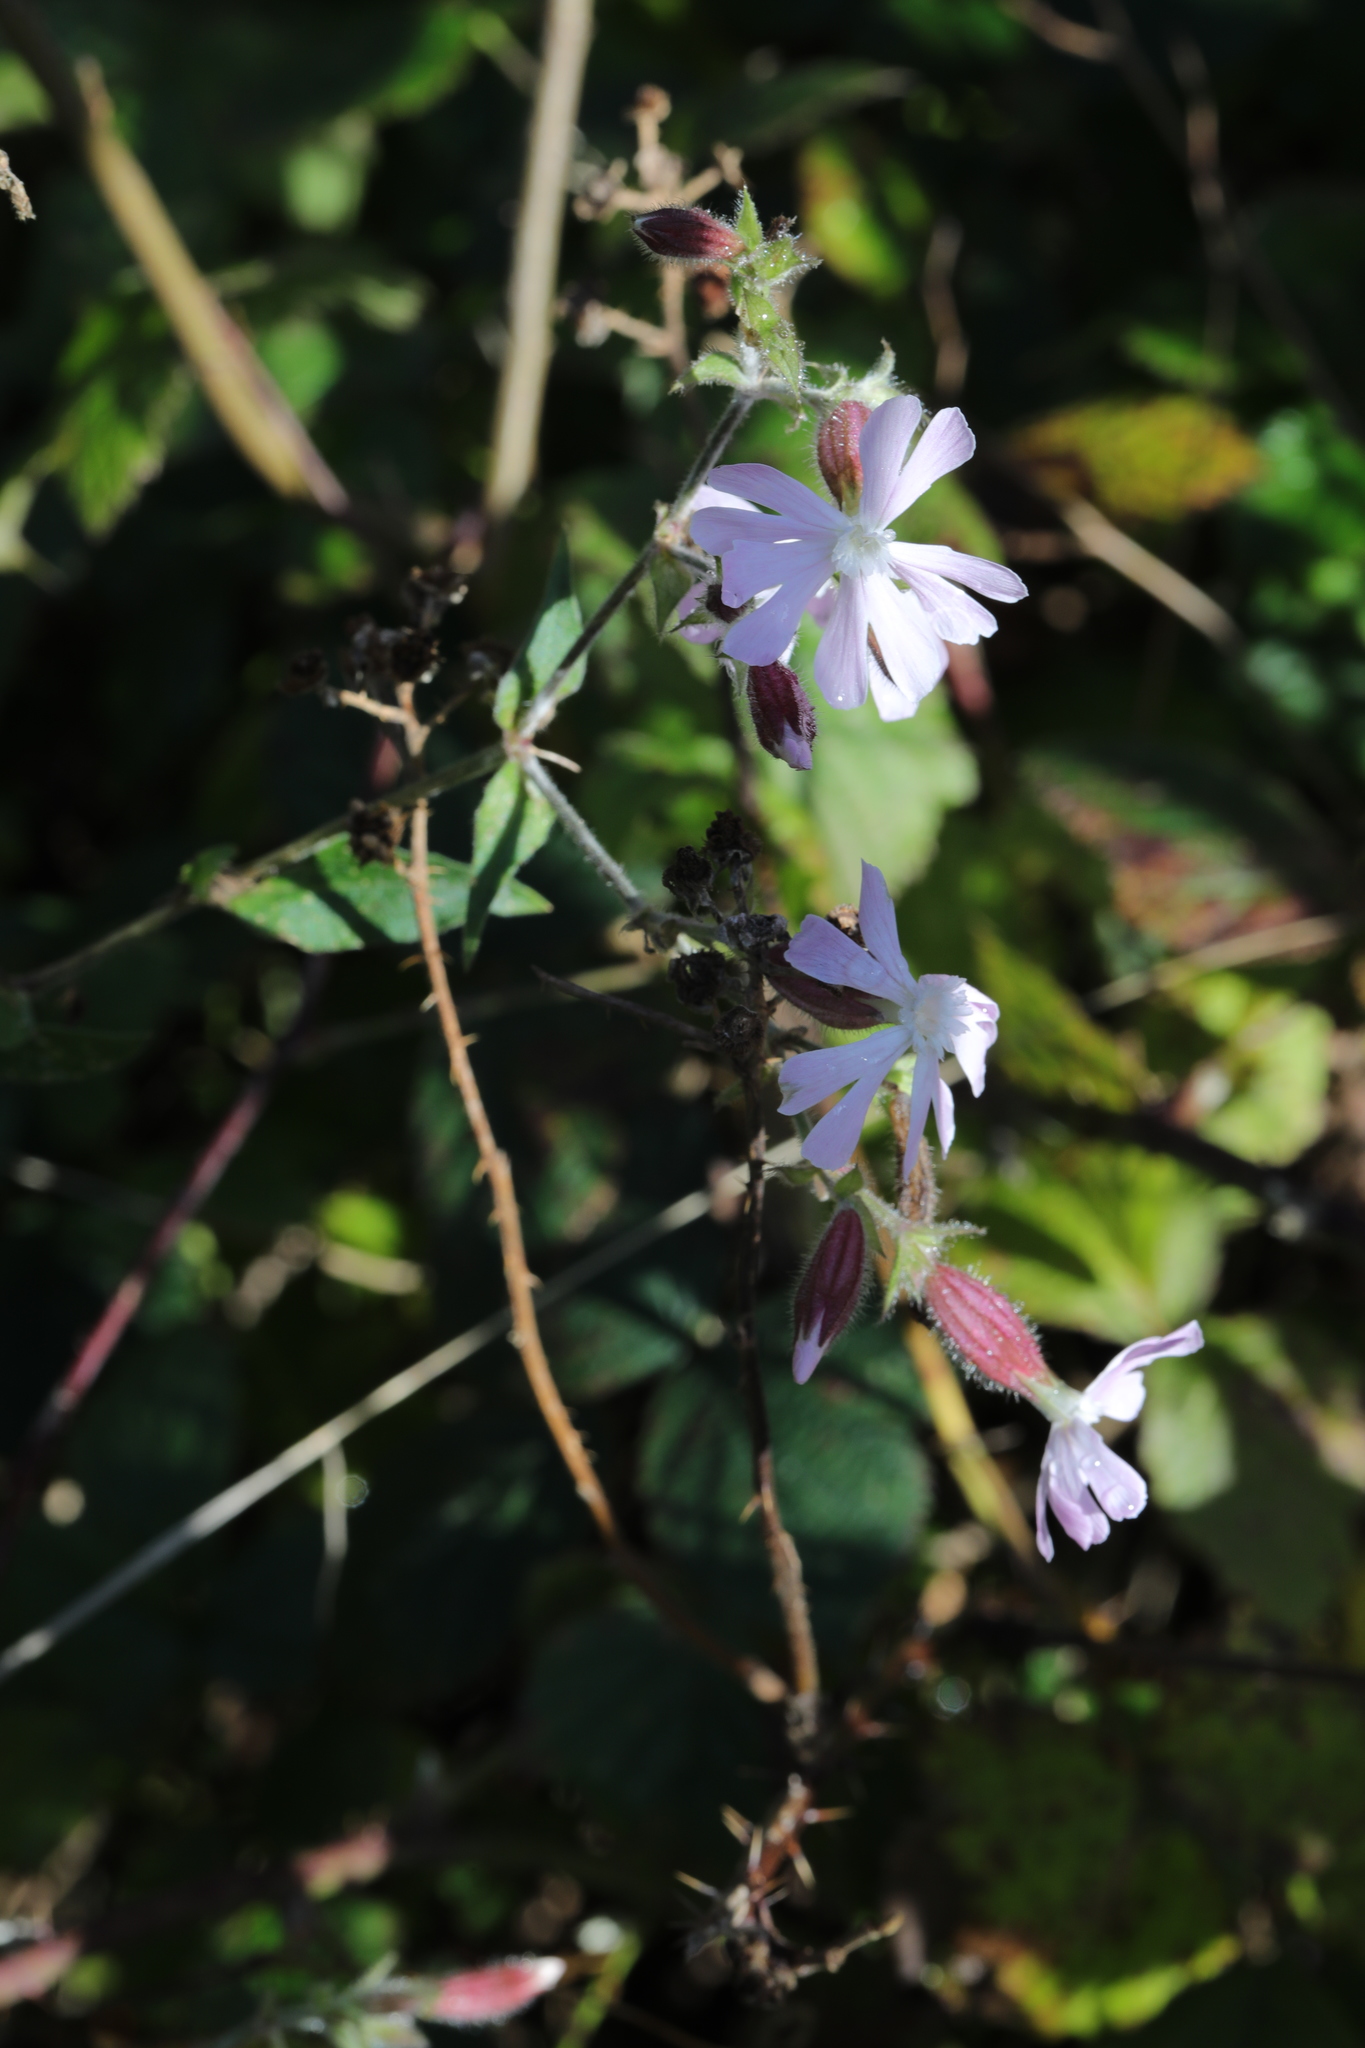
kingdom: Plantae
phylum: Tracheophyta
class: Magnoliopsida
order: Caryophyllales
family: Caryophyllaceae
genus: Silene
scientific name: Silene hampeana
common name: Catchfly
